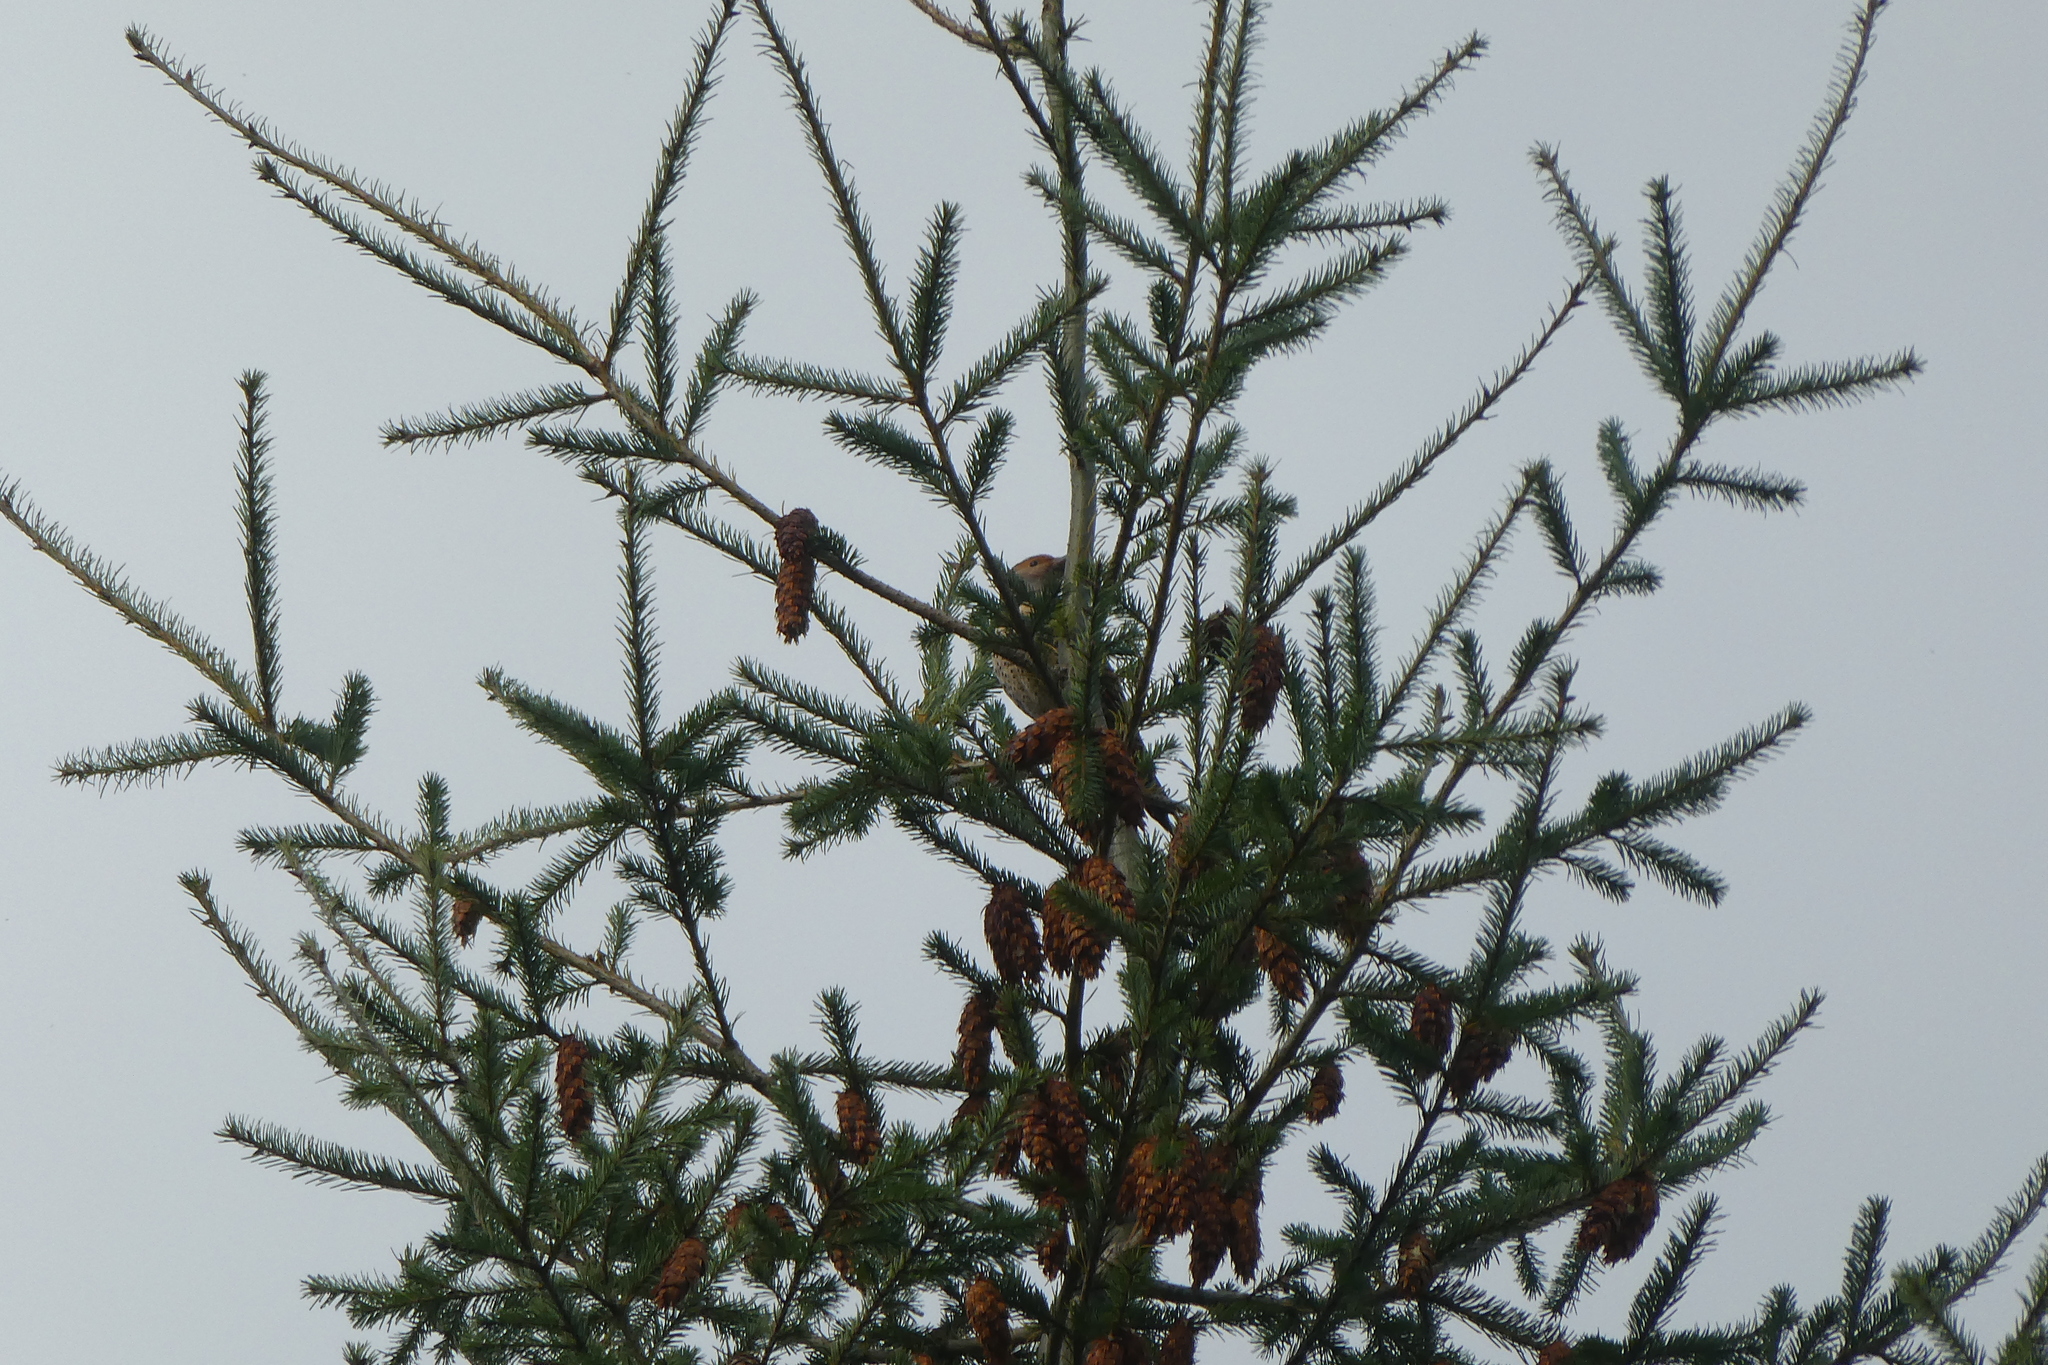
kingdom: Animalia
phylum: Chordata
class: Aves
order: Piciformes
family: Picidae
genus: Colaptes
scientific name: Colaptes auratus
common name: Northern flicker
